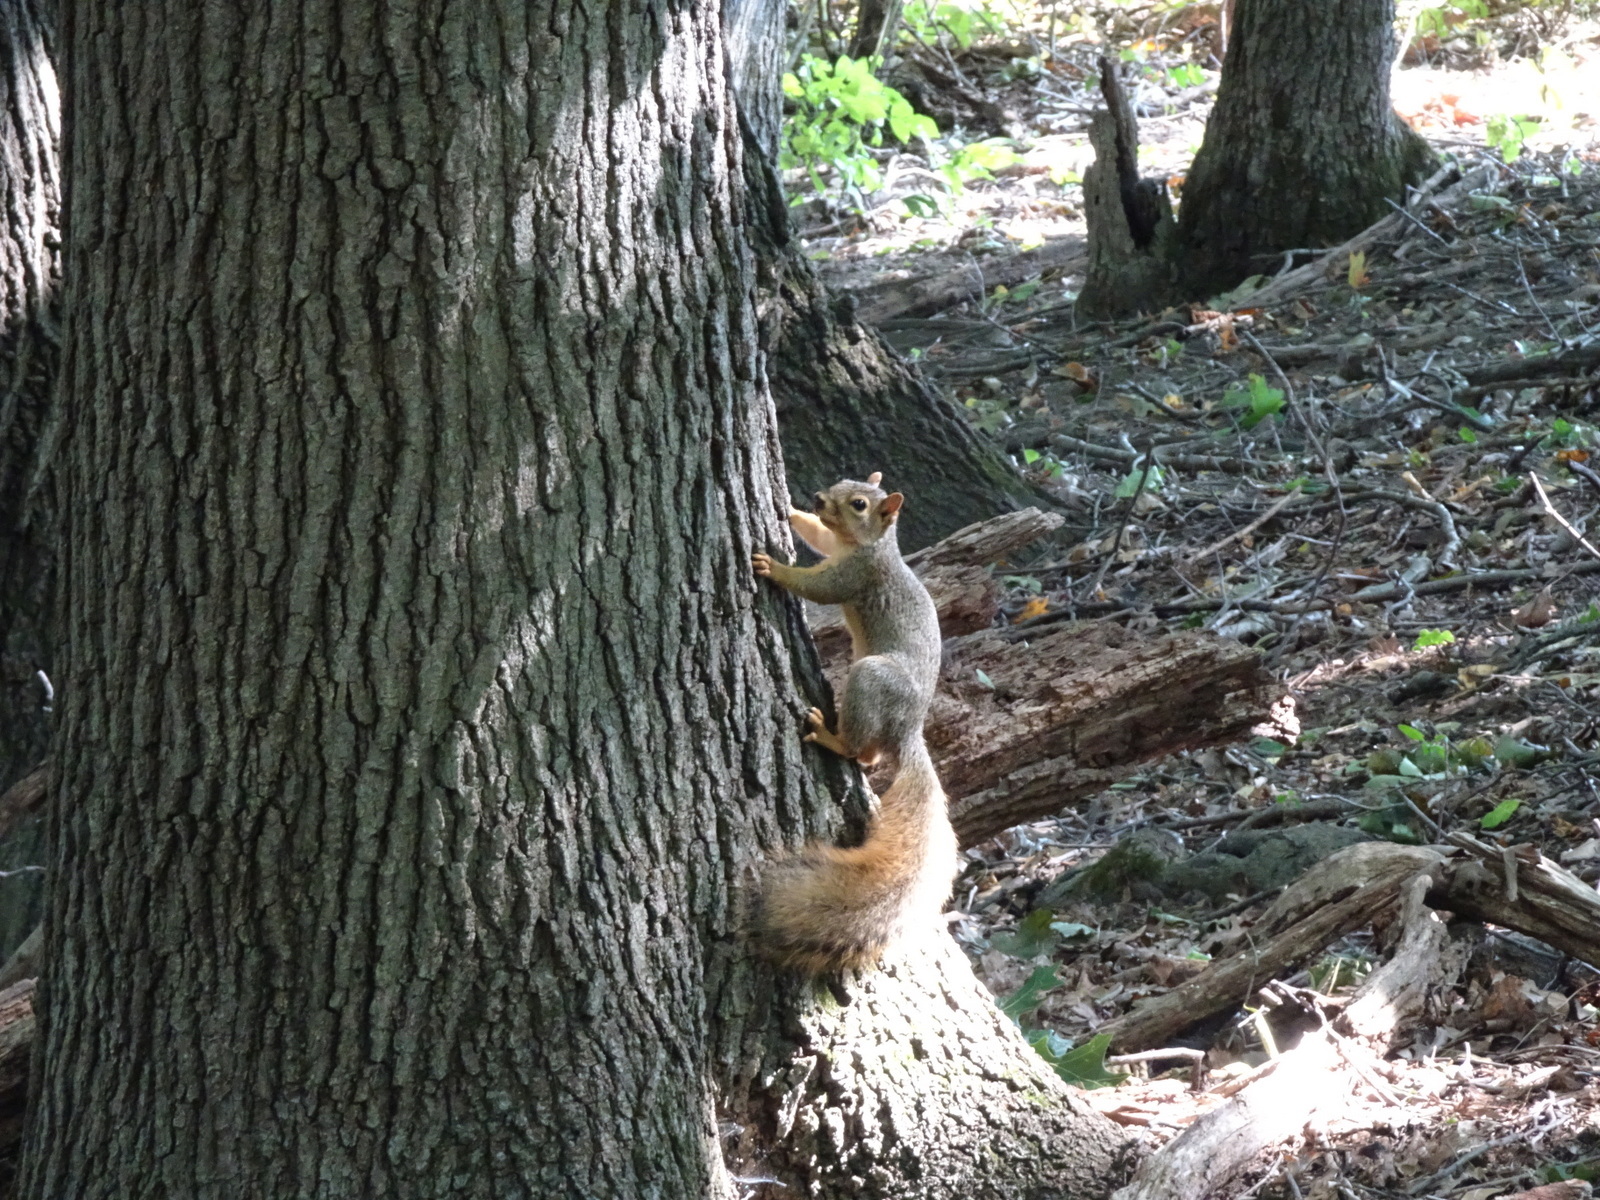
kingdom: Animalia
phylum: Chordata
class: Mammalia
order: Rodentia
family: Sciuridae
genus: Sciurus
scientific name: Sciurus niger
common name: Fox squirrel
